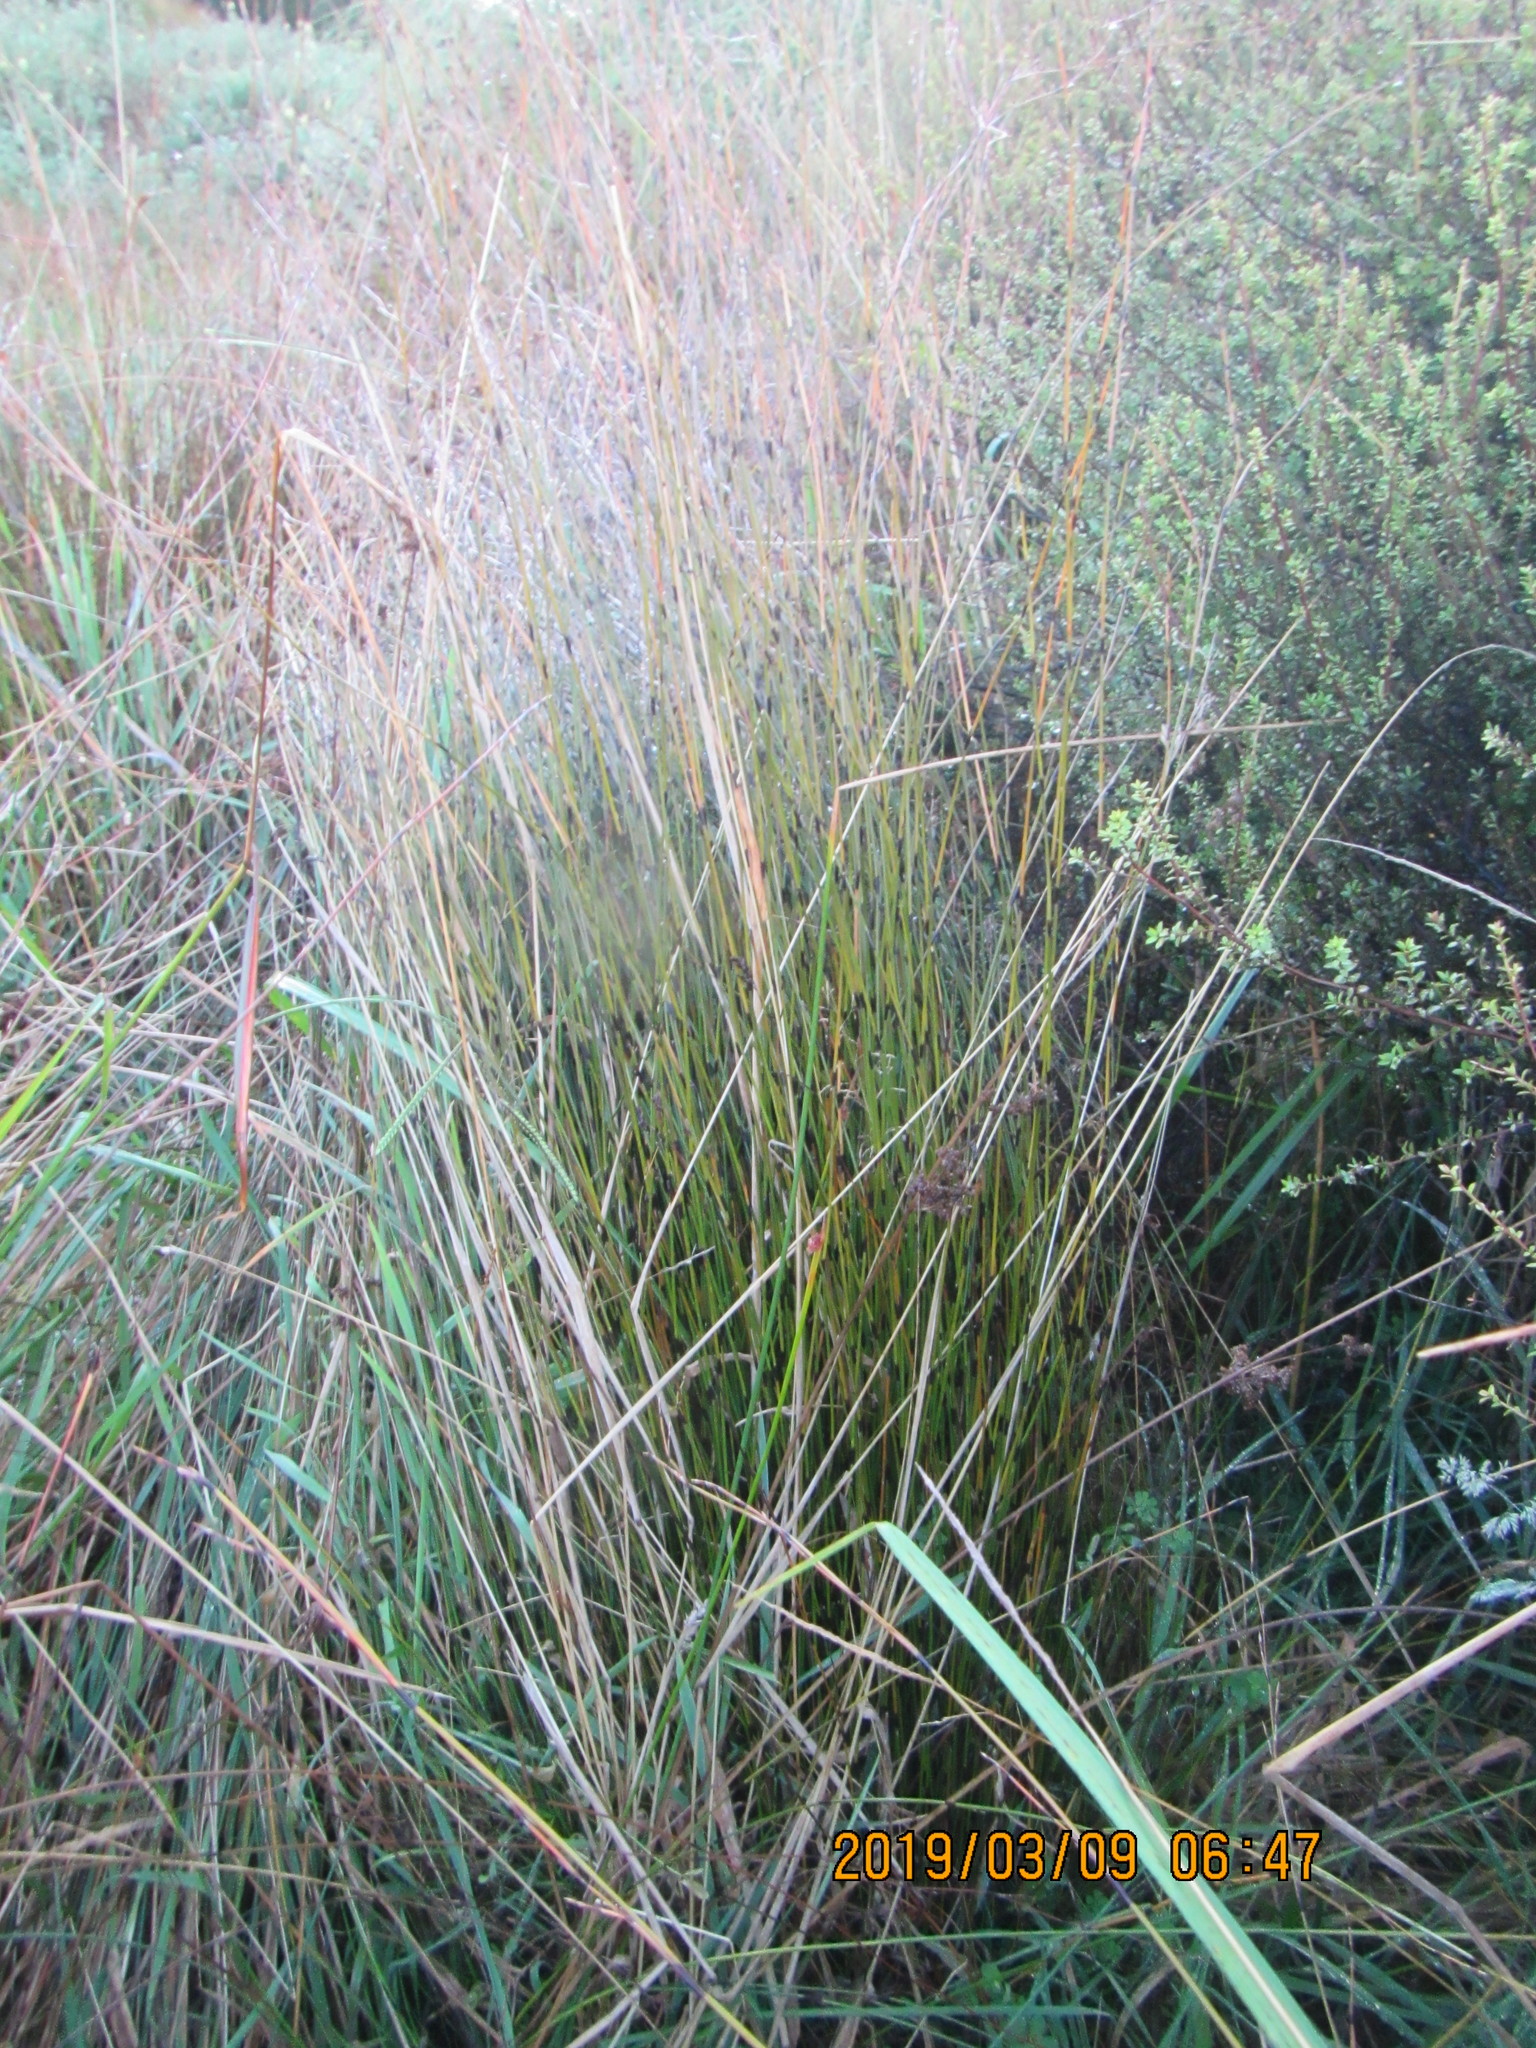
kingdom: Plantae
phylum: Tracheophyta
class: Liliopsida
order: Poales
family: Restionaceae
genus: Apodasmia
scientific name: Apodasmia similis
